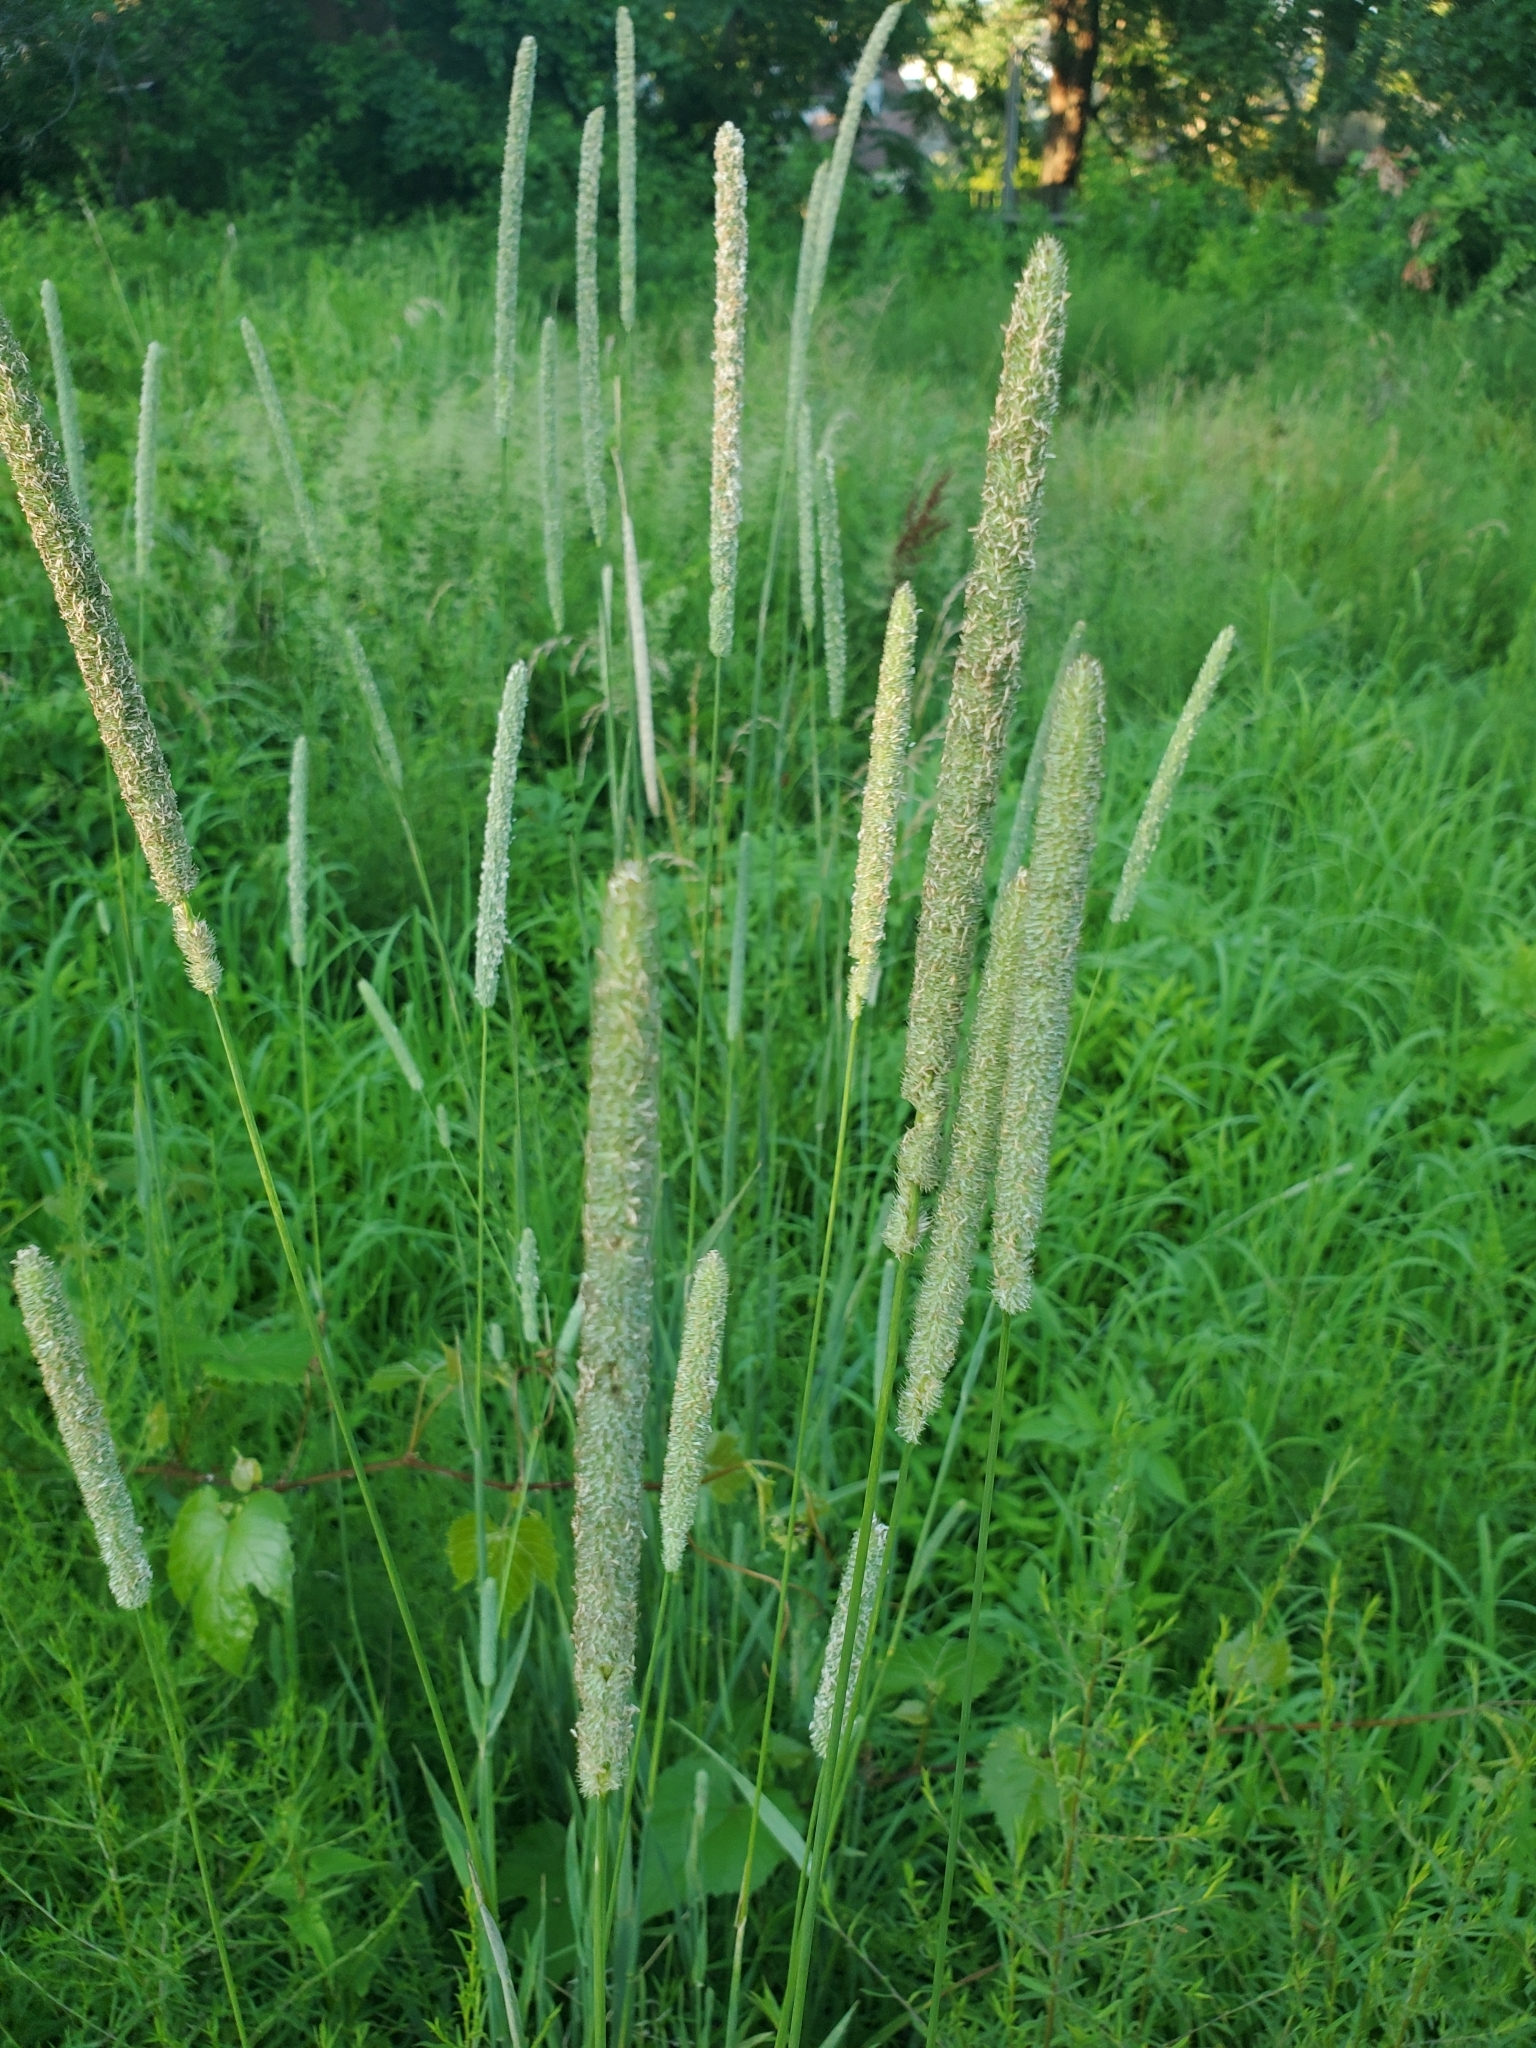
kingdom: Plantae
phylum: Tracheophyta
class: Liliopsida
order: Poales
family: Poaceae
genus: Phleum
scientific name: Phleum pratense
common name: Timothy grass
